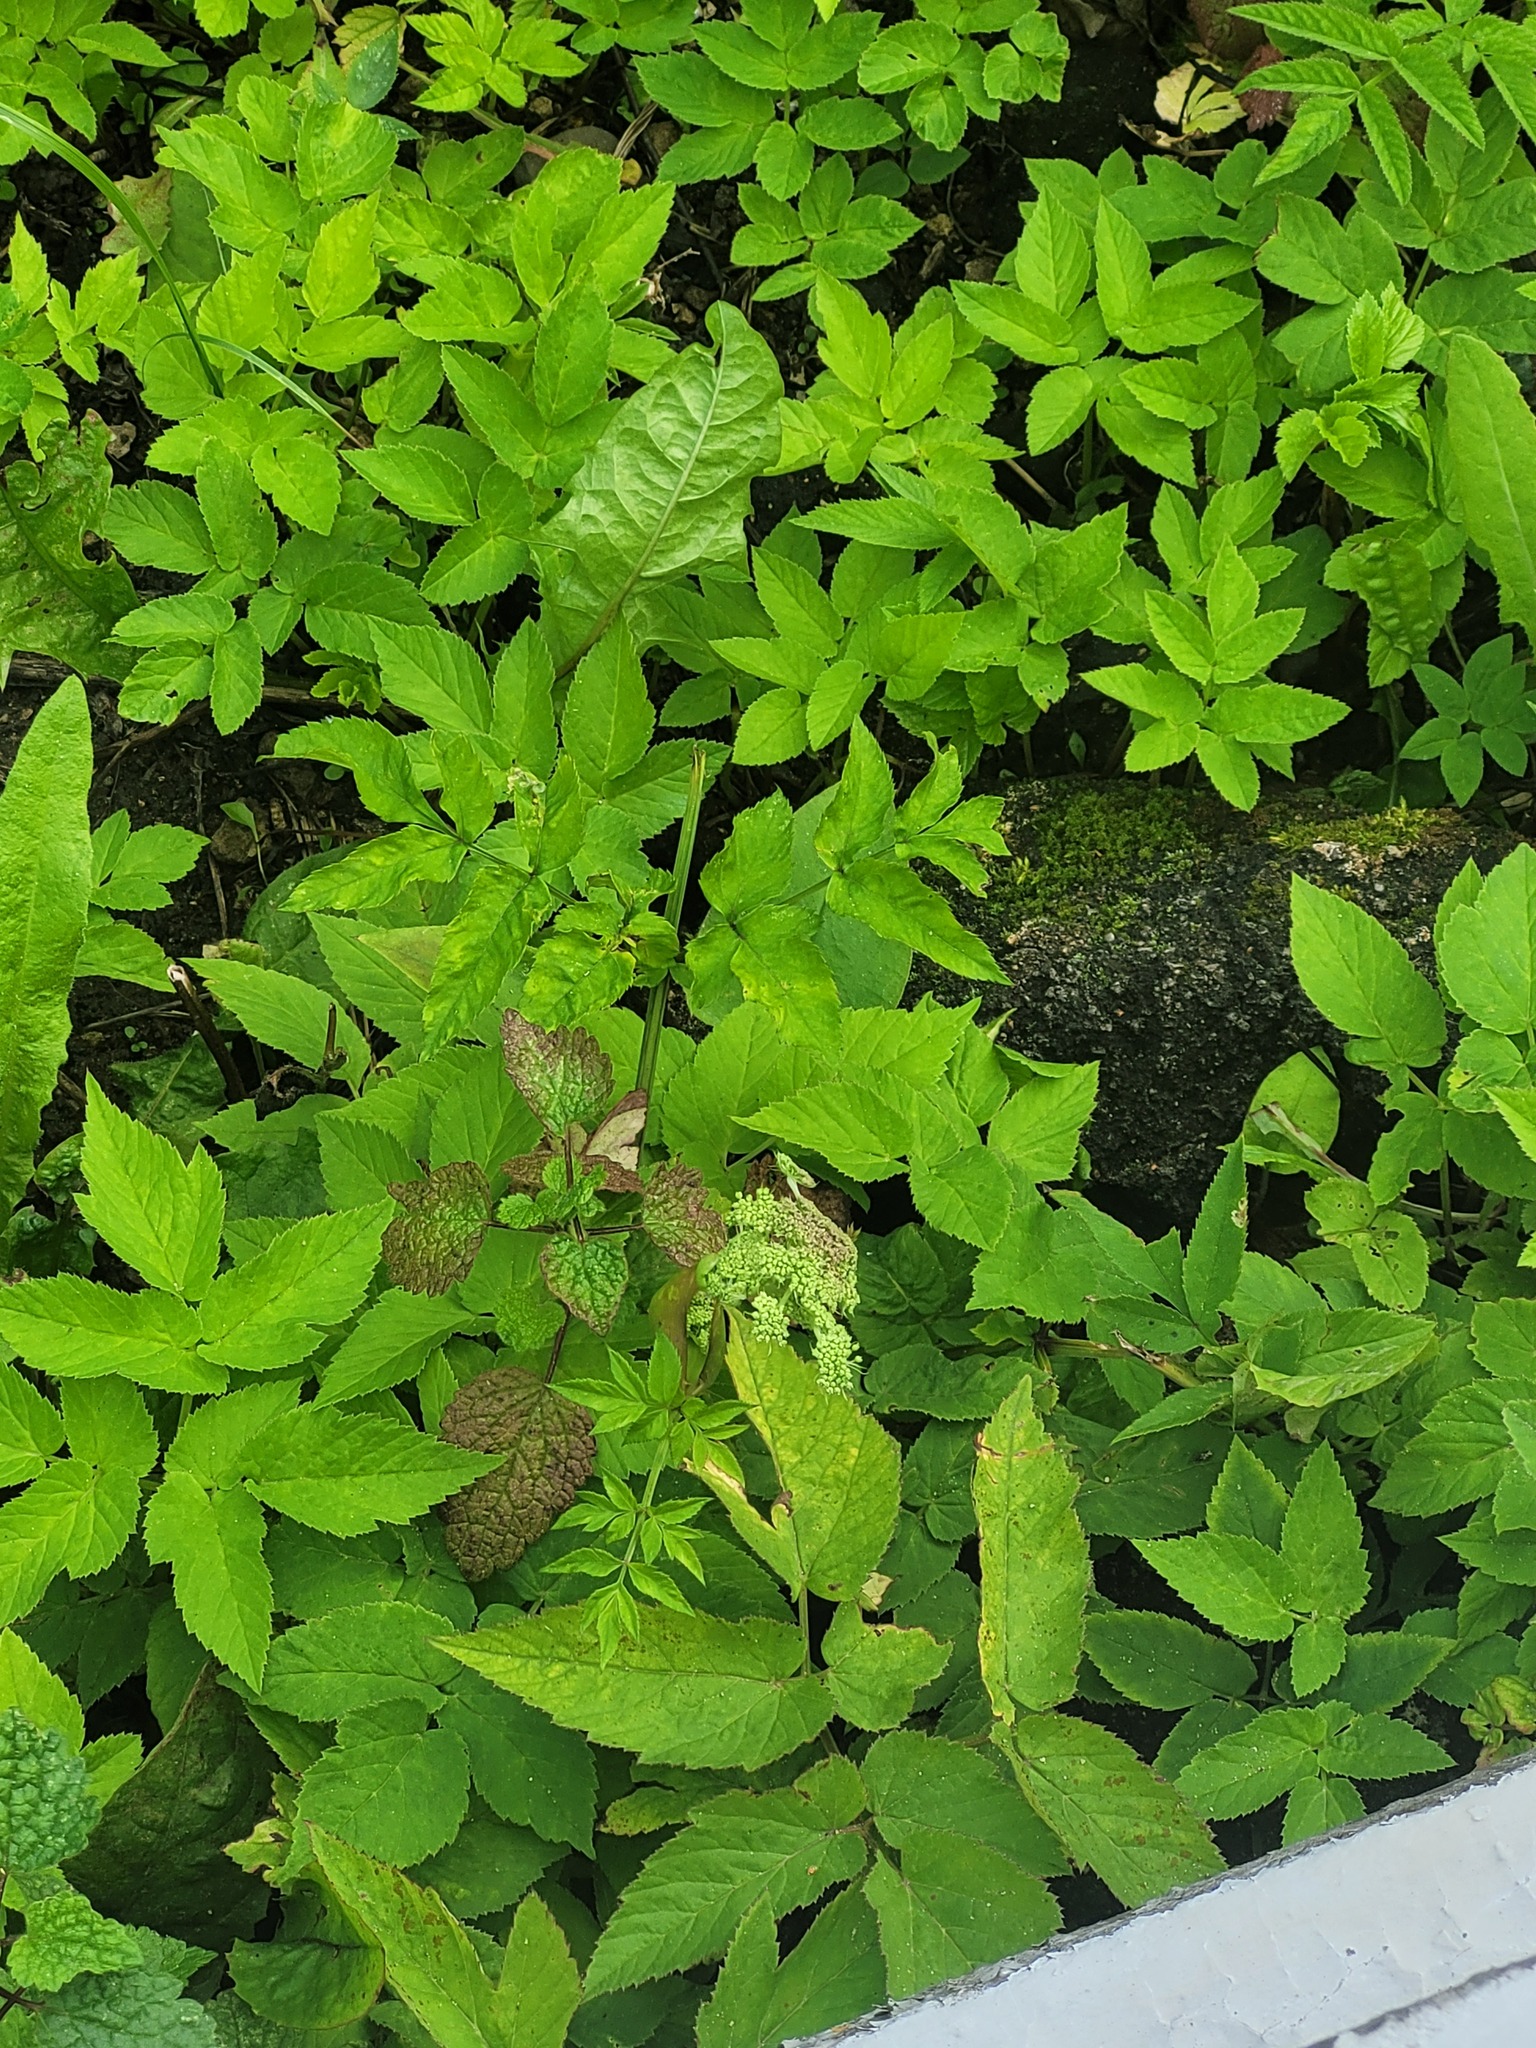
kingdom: Plantae
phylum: Tracheophyta
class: Magnoliopsida
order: Apiales
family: Apiaceae
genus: Angelica
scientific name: Angelica sylvestris
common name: Wild angelica
